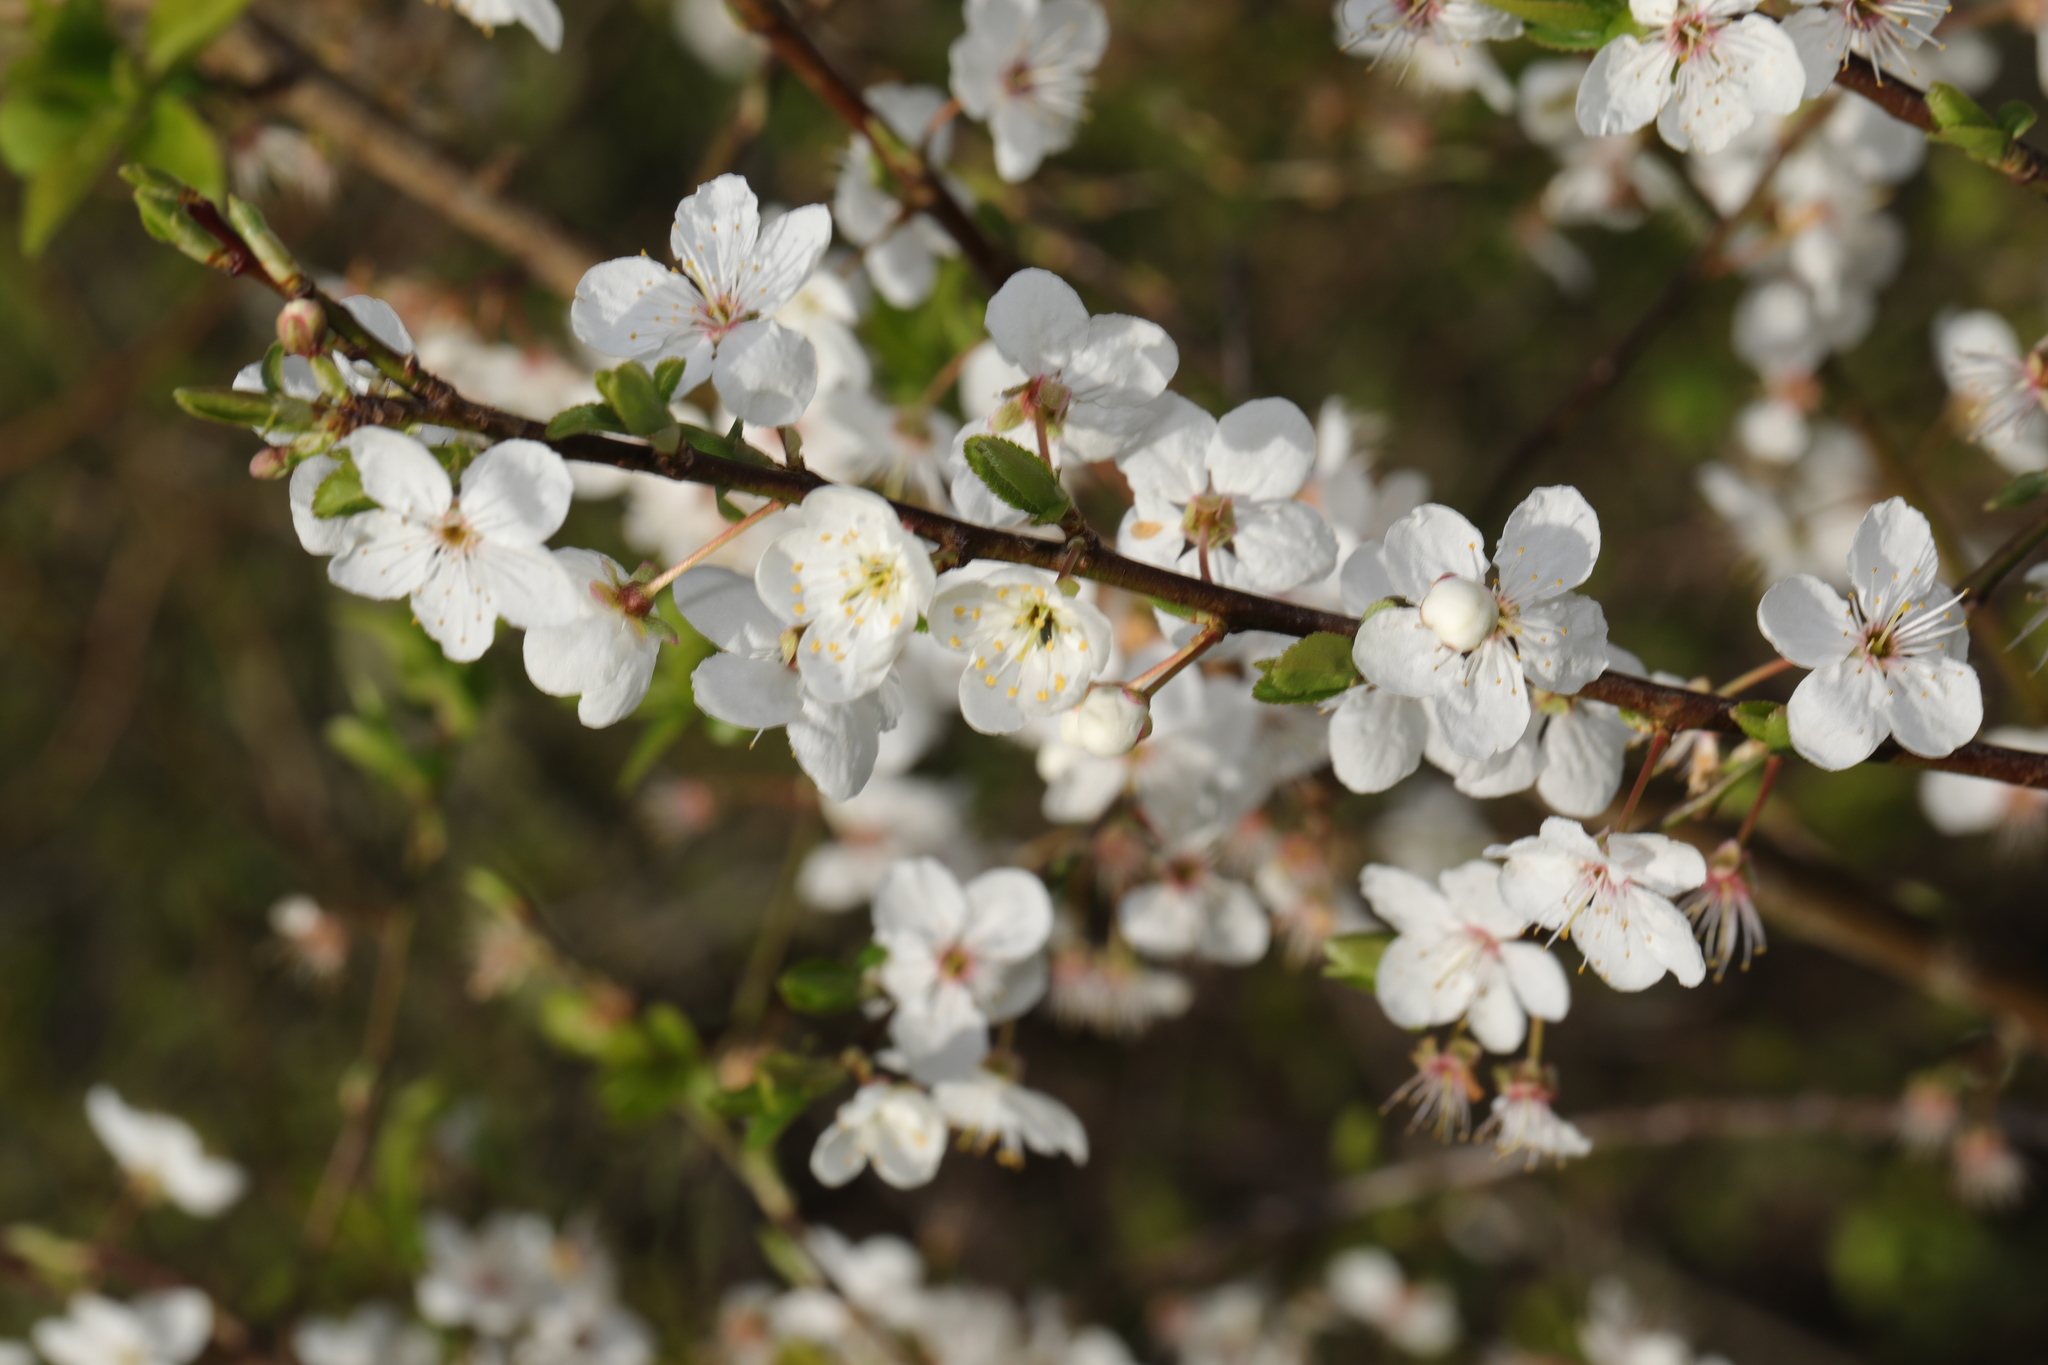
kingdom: Plantae
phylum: Tracheophyta
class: Magnoliopsida
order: Rosales
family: Rosaceae
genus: Prunus
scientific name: Prunus cerasifera
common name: Cherry plum
